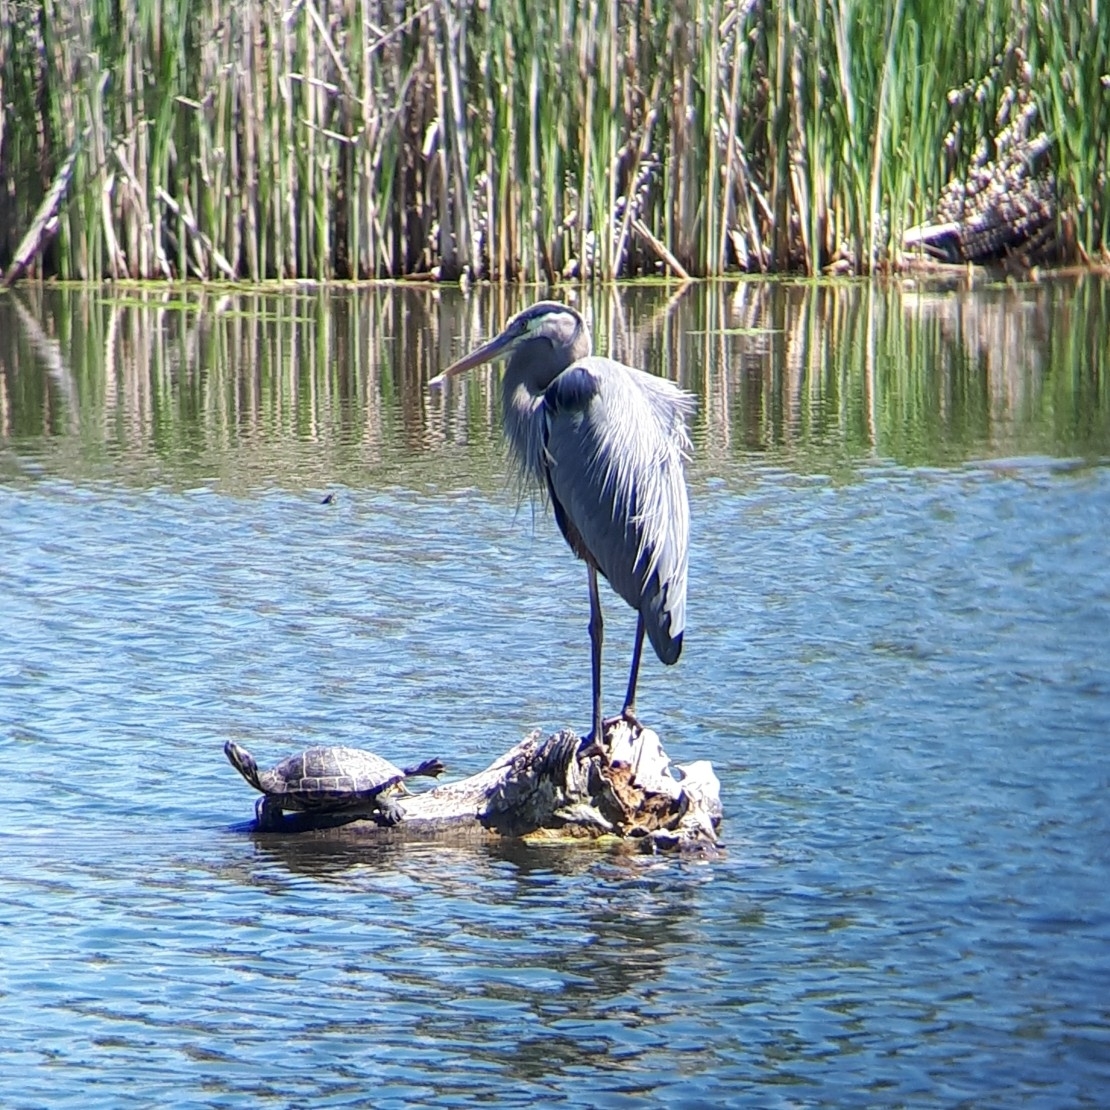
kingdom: Animalia
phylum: Chordata
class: Aves
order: Pelecaniformes
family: Ardeidae
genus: Ardea
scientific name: Ardea herodias
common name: Great blue heron
